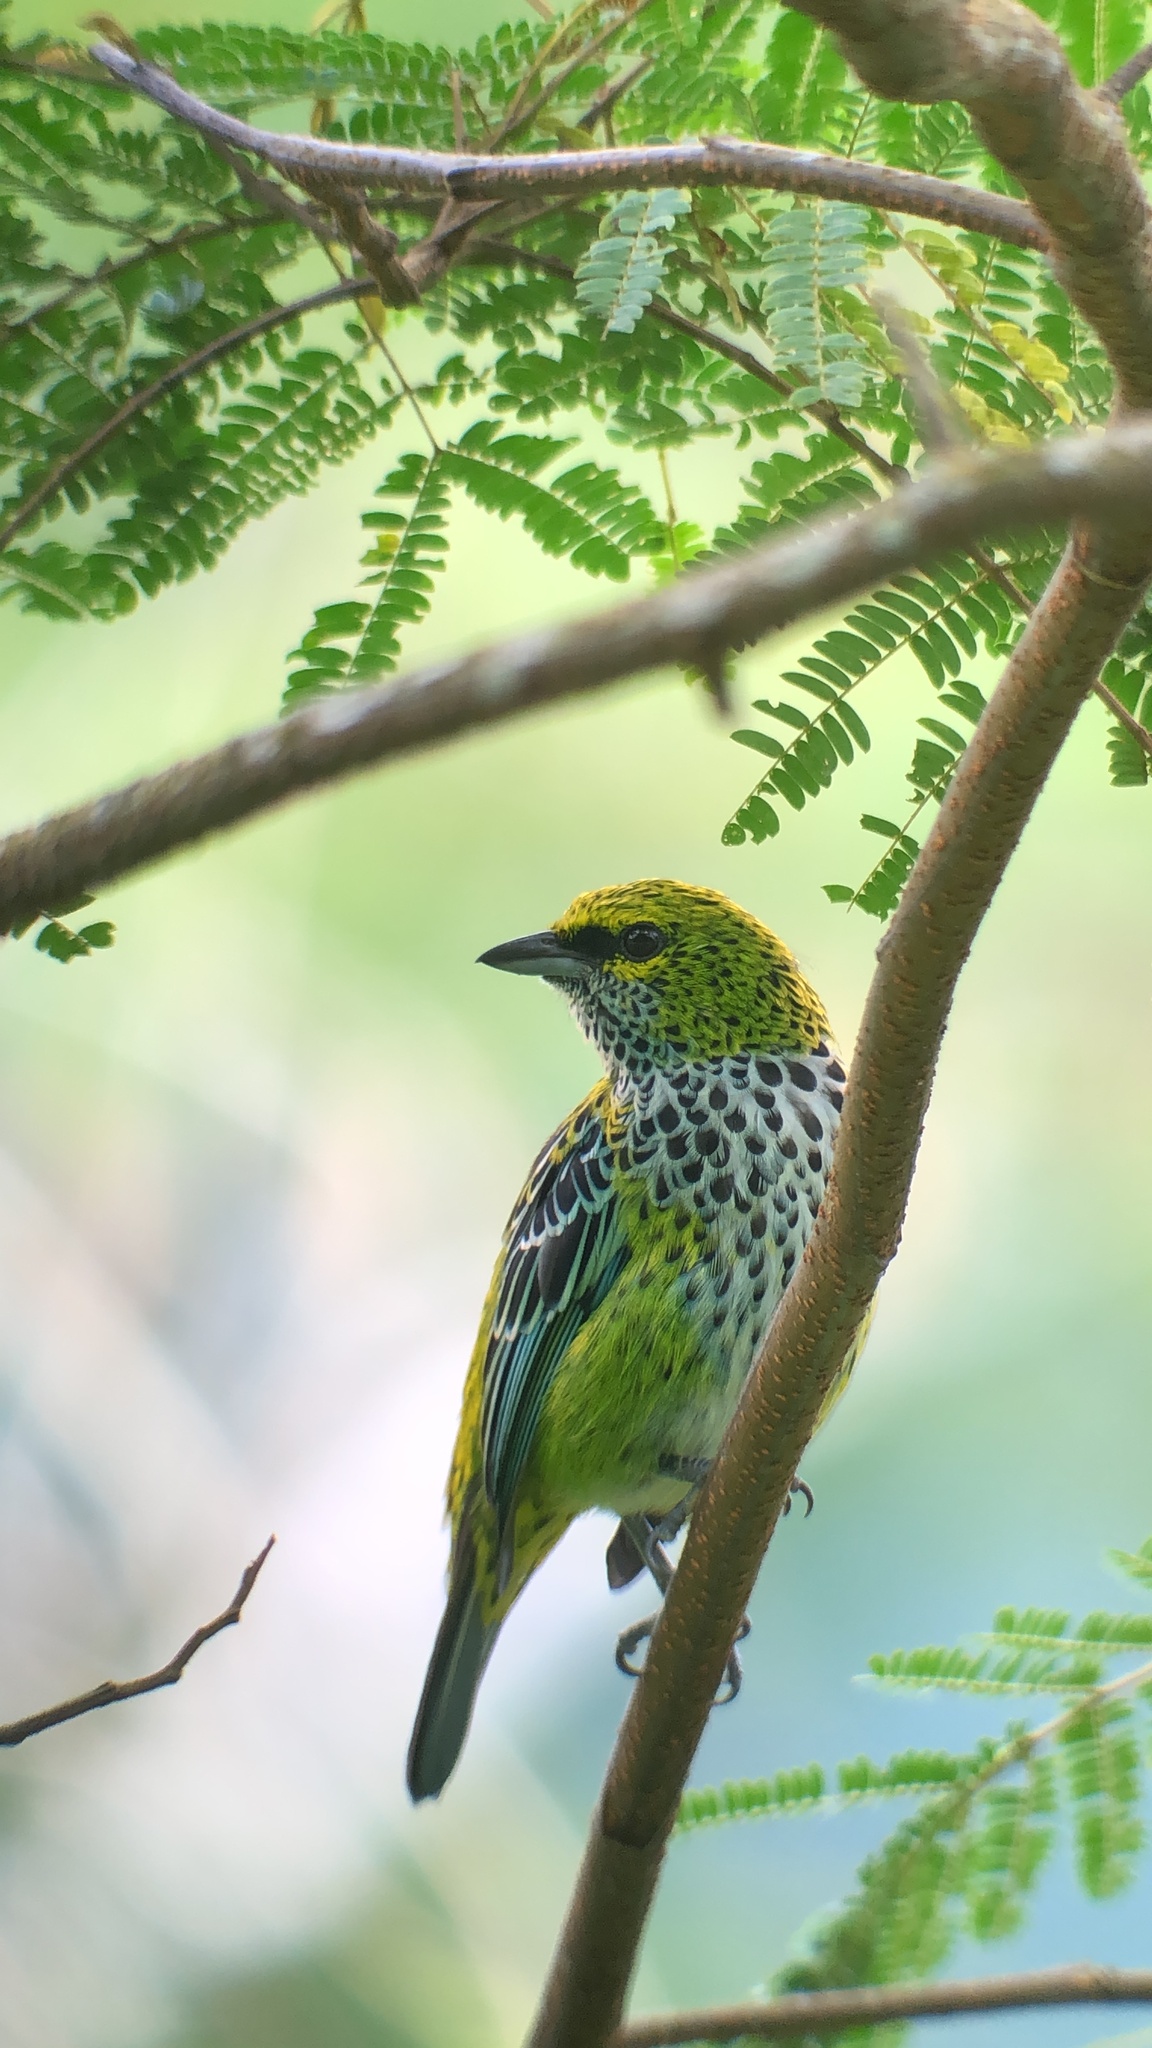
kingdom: Animalia
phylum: Chordata
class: Aves
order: Passeriformes
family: Thraupidae
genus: Ixothraupis
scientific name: Ixothraupis guttata
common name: Speckled tanager
